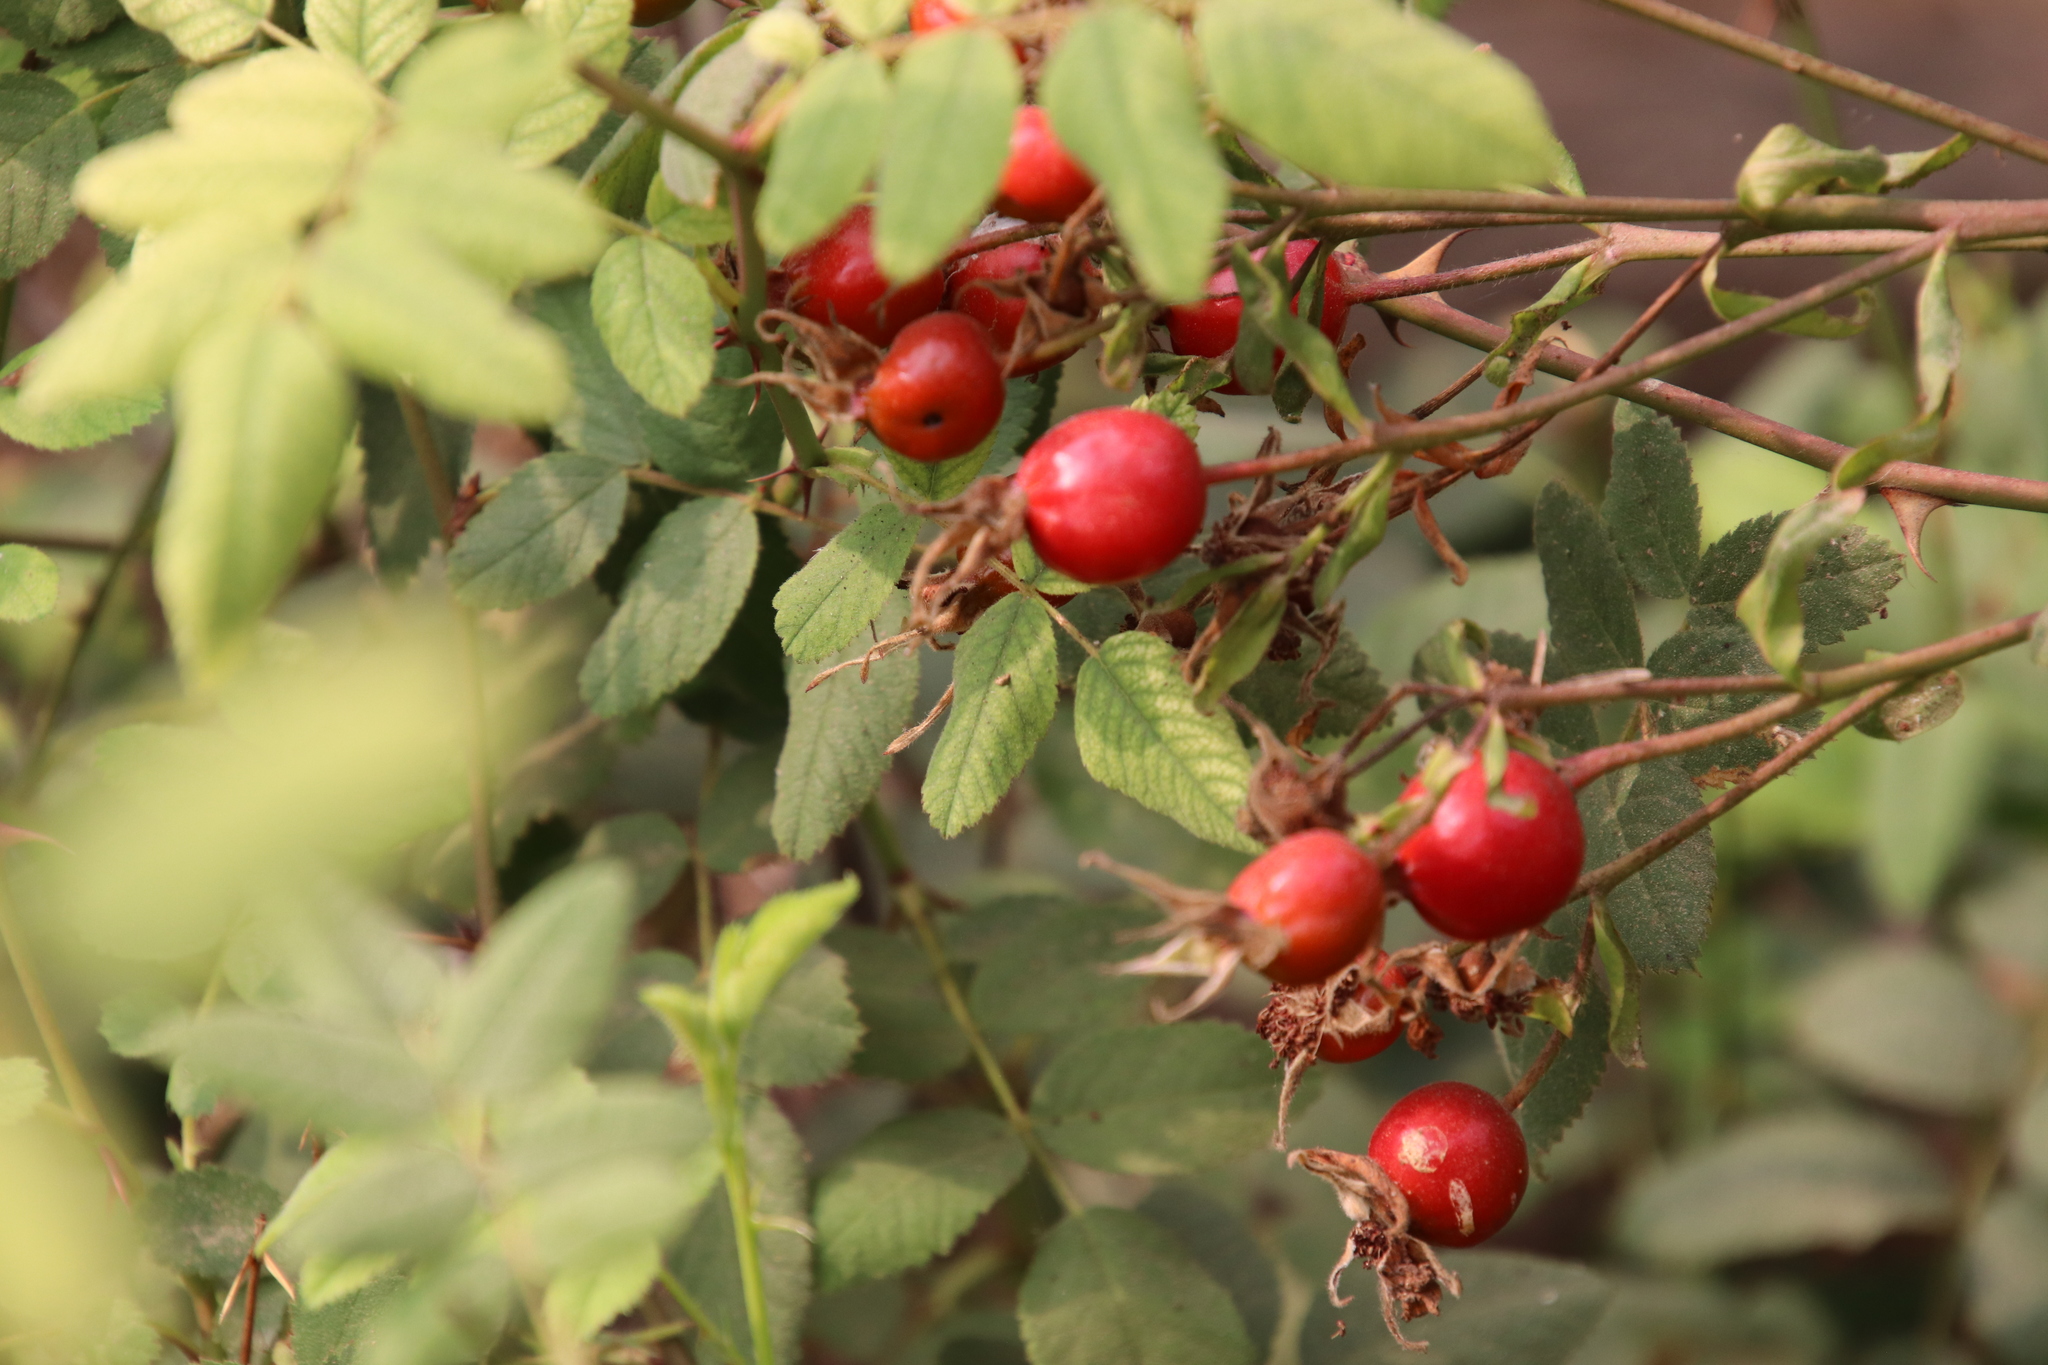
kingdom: Plantae
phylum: Tracheophyta
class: Magnoliopsida
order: Rosales
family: Rosaceae
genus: Rosa
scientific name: Rosa californica
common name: California rose
